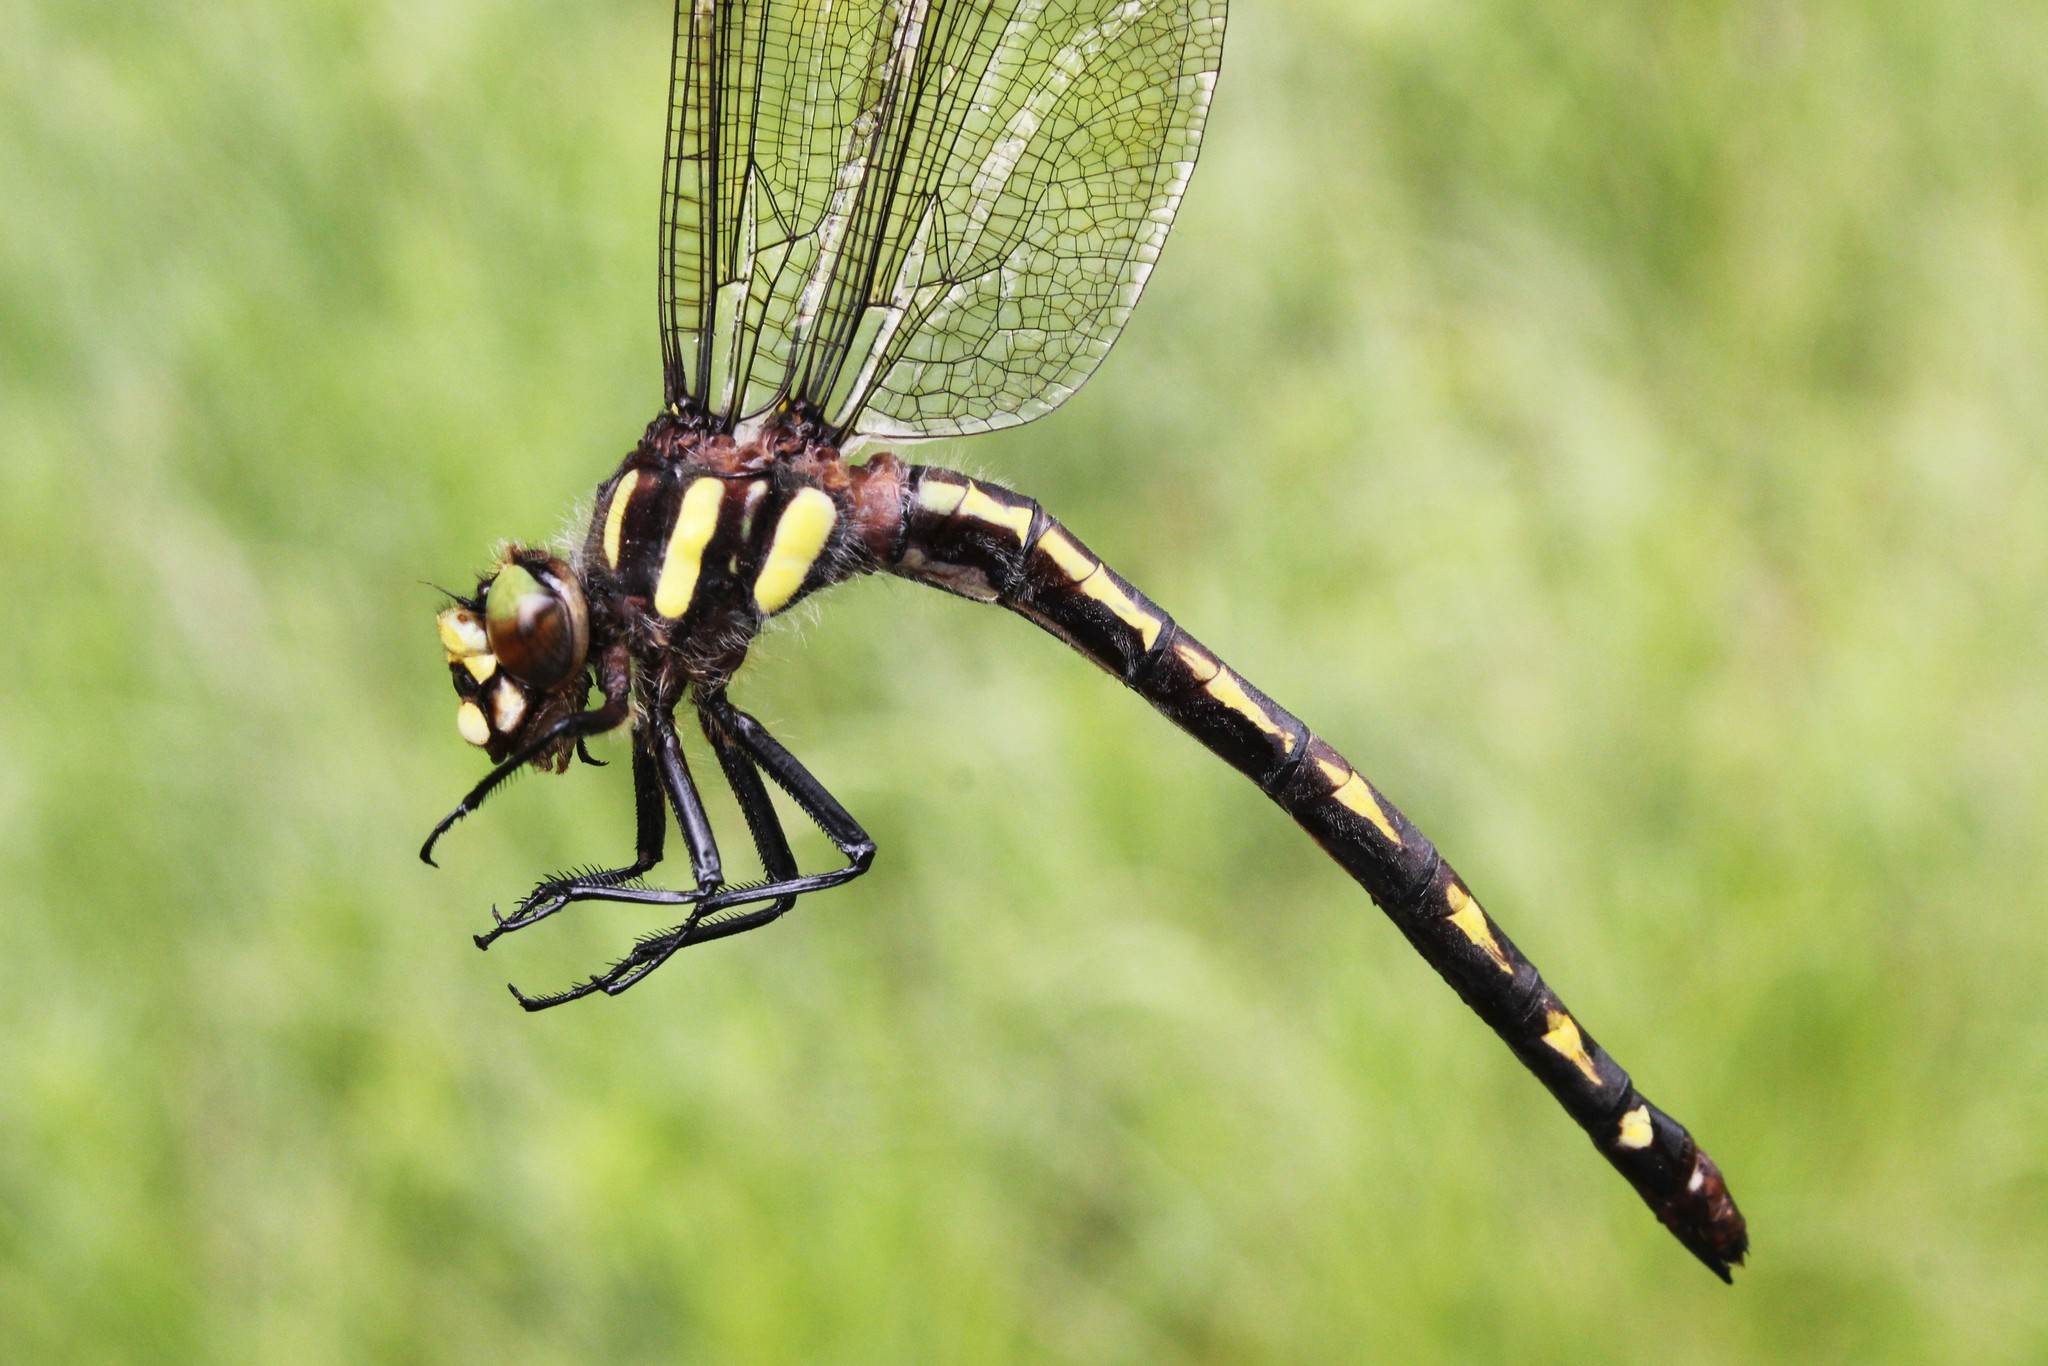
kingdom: Animalia
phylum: Arthropoda
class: Insecta
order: Odonata
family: Cordulegastridae
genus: Cordulegaster
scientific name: Cordulegaster diastatops
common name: Delta-spotted spiketail
